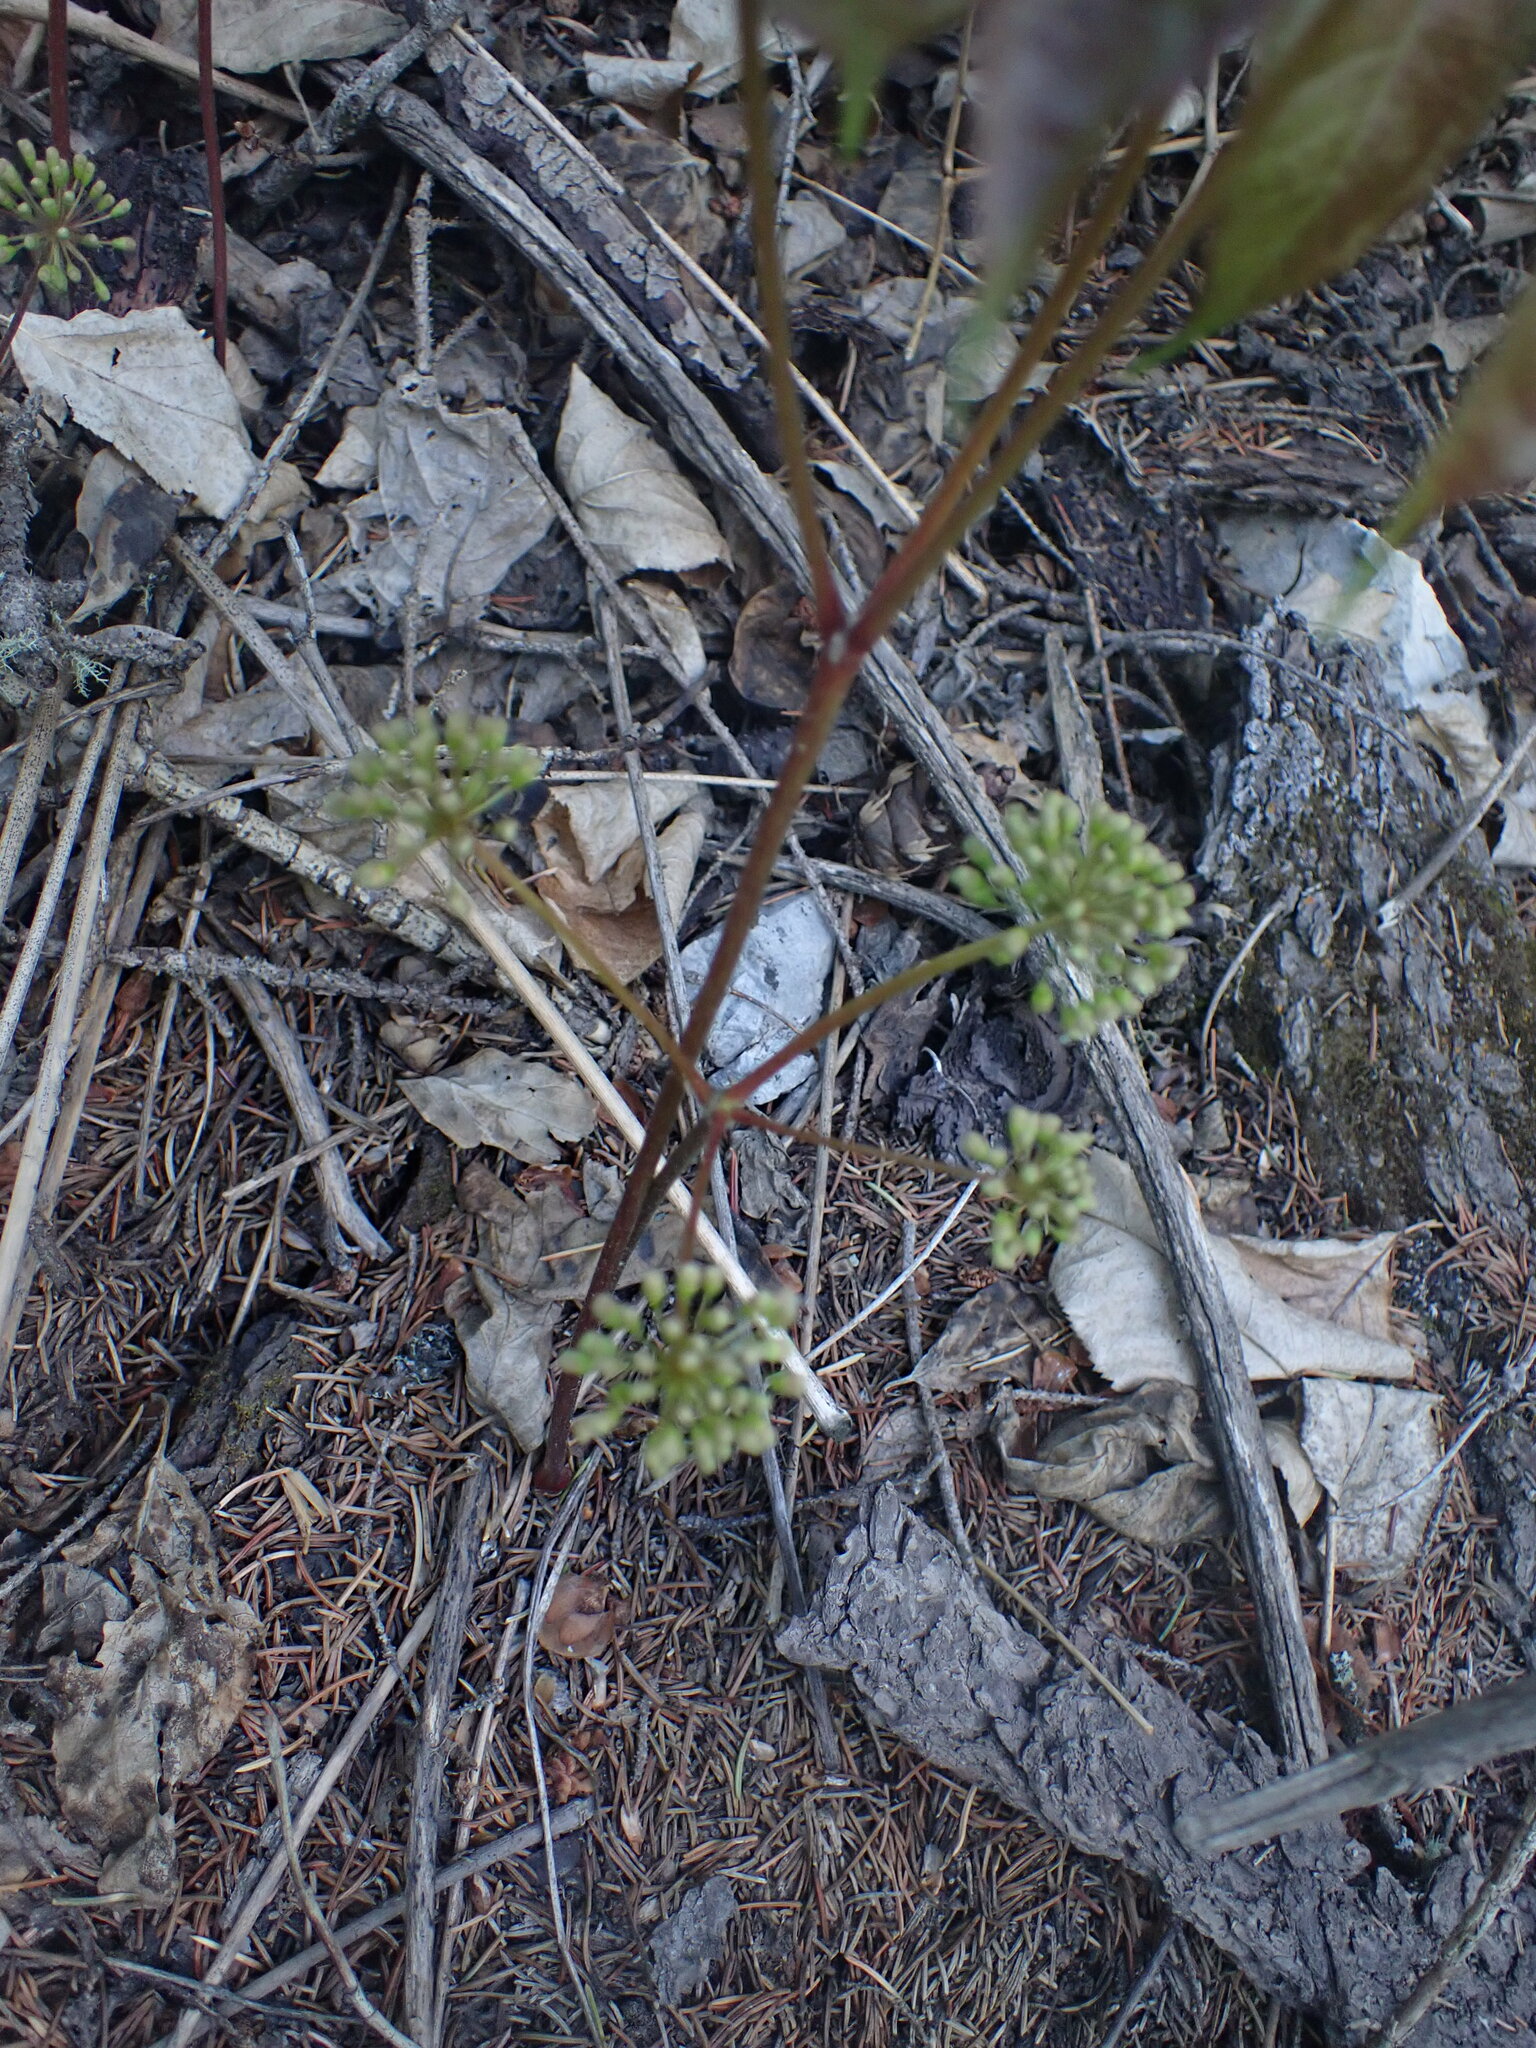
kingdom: Plantae
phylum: Tracheophyta
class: Magnoliopsida
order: Apiales
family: Araliaceae
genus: Aralia
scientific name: Aralia nudicaulis
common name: Wild sarsaparilla
